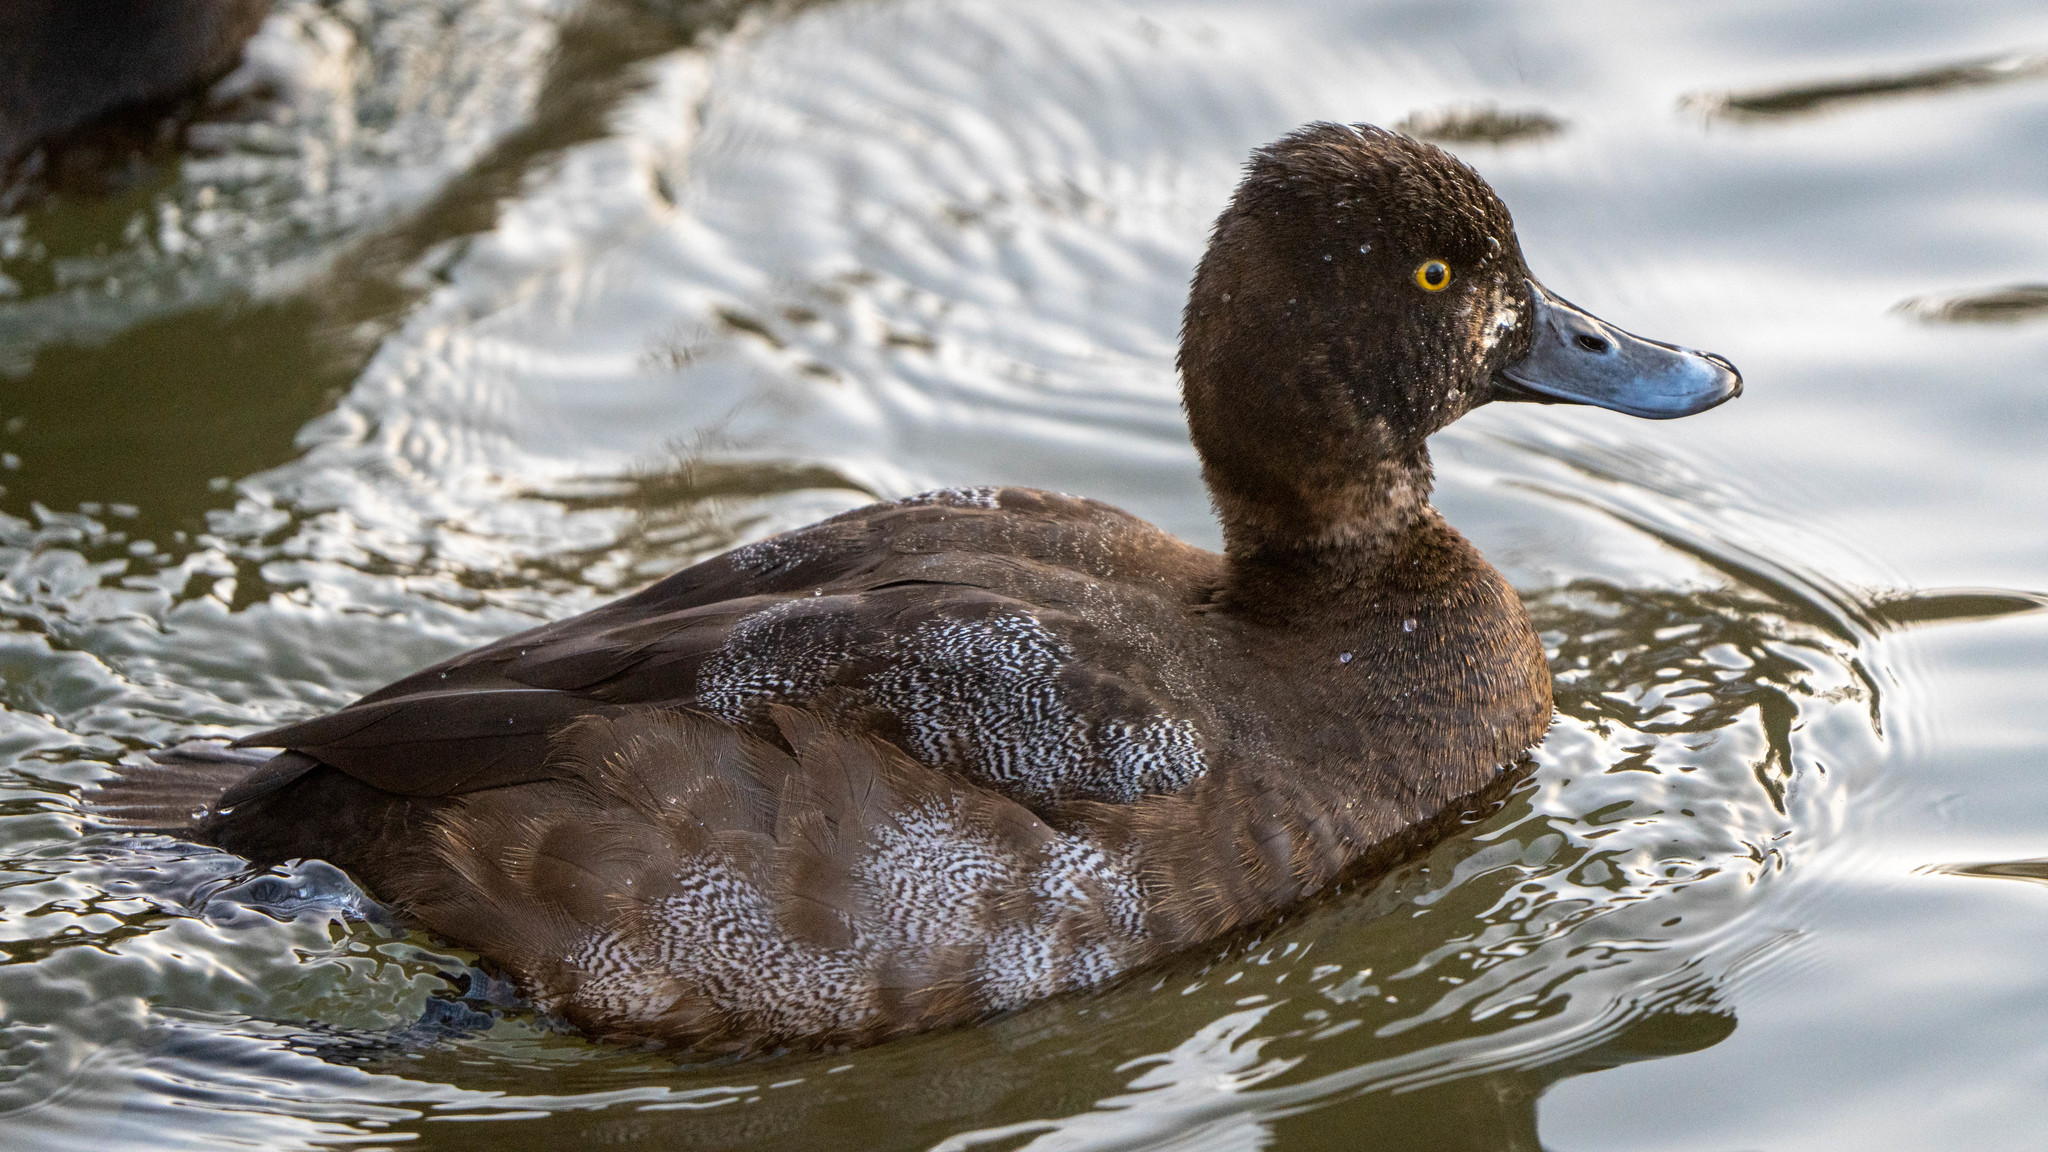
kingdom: Animalia
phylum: Chordata
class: Aves
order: Anseriformes
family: Anatidae
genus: Aythya
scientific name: Aythya affinis
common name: Lesser scaup
